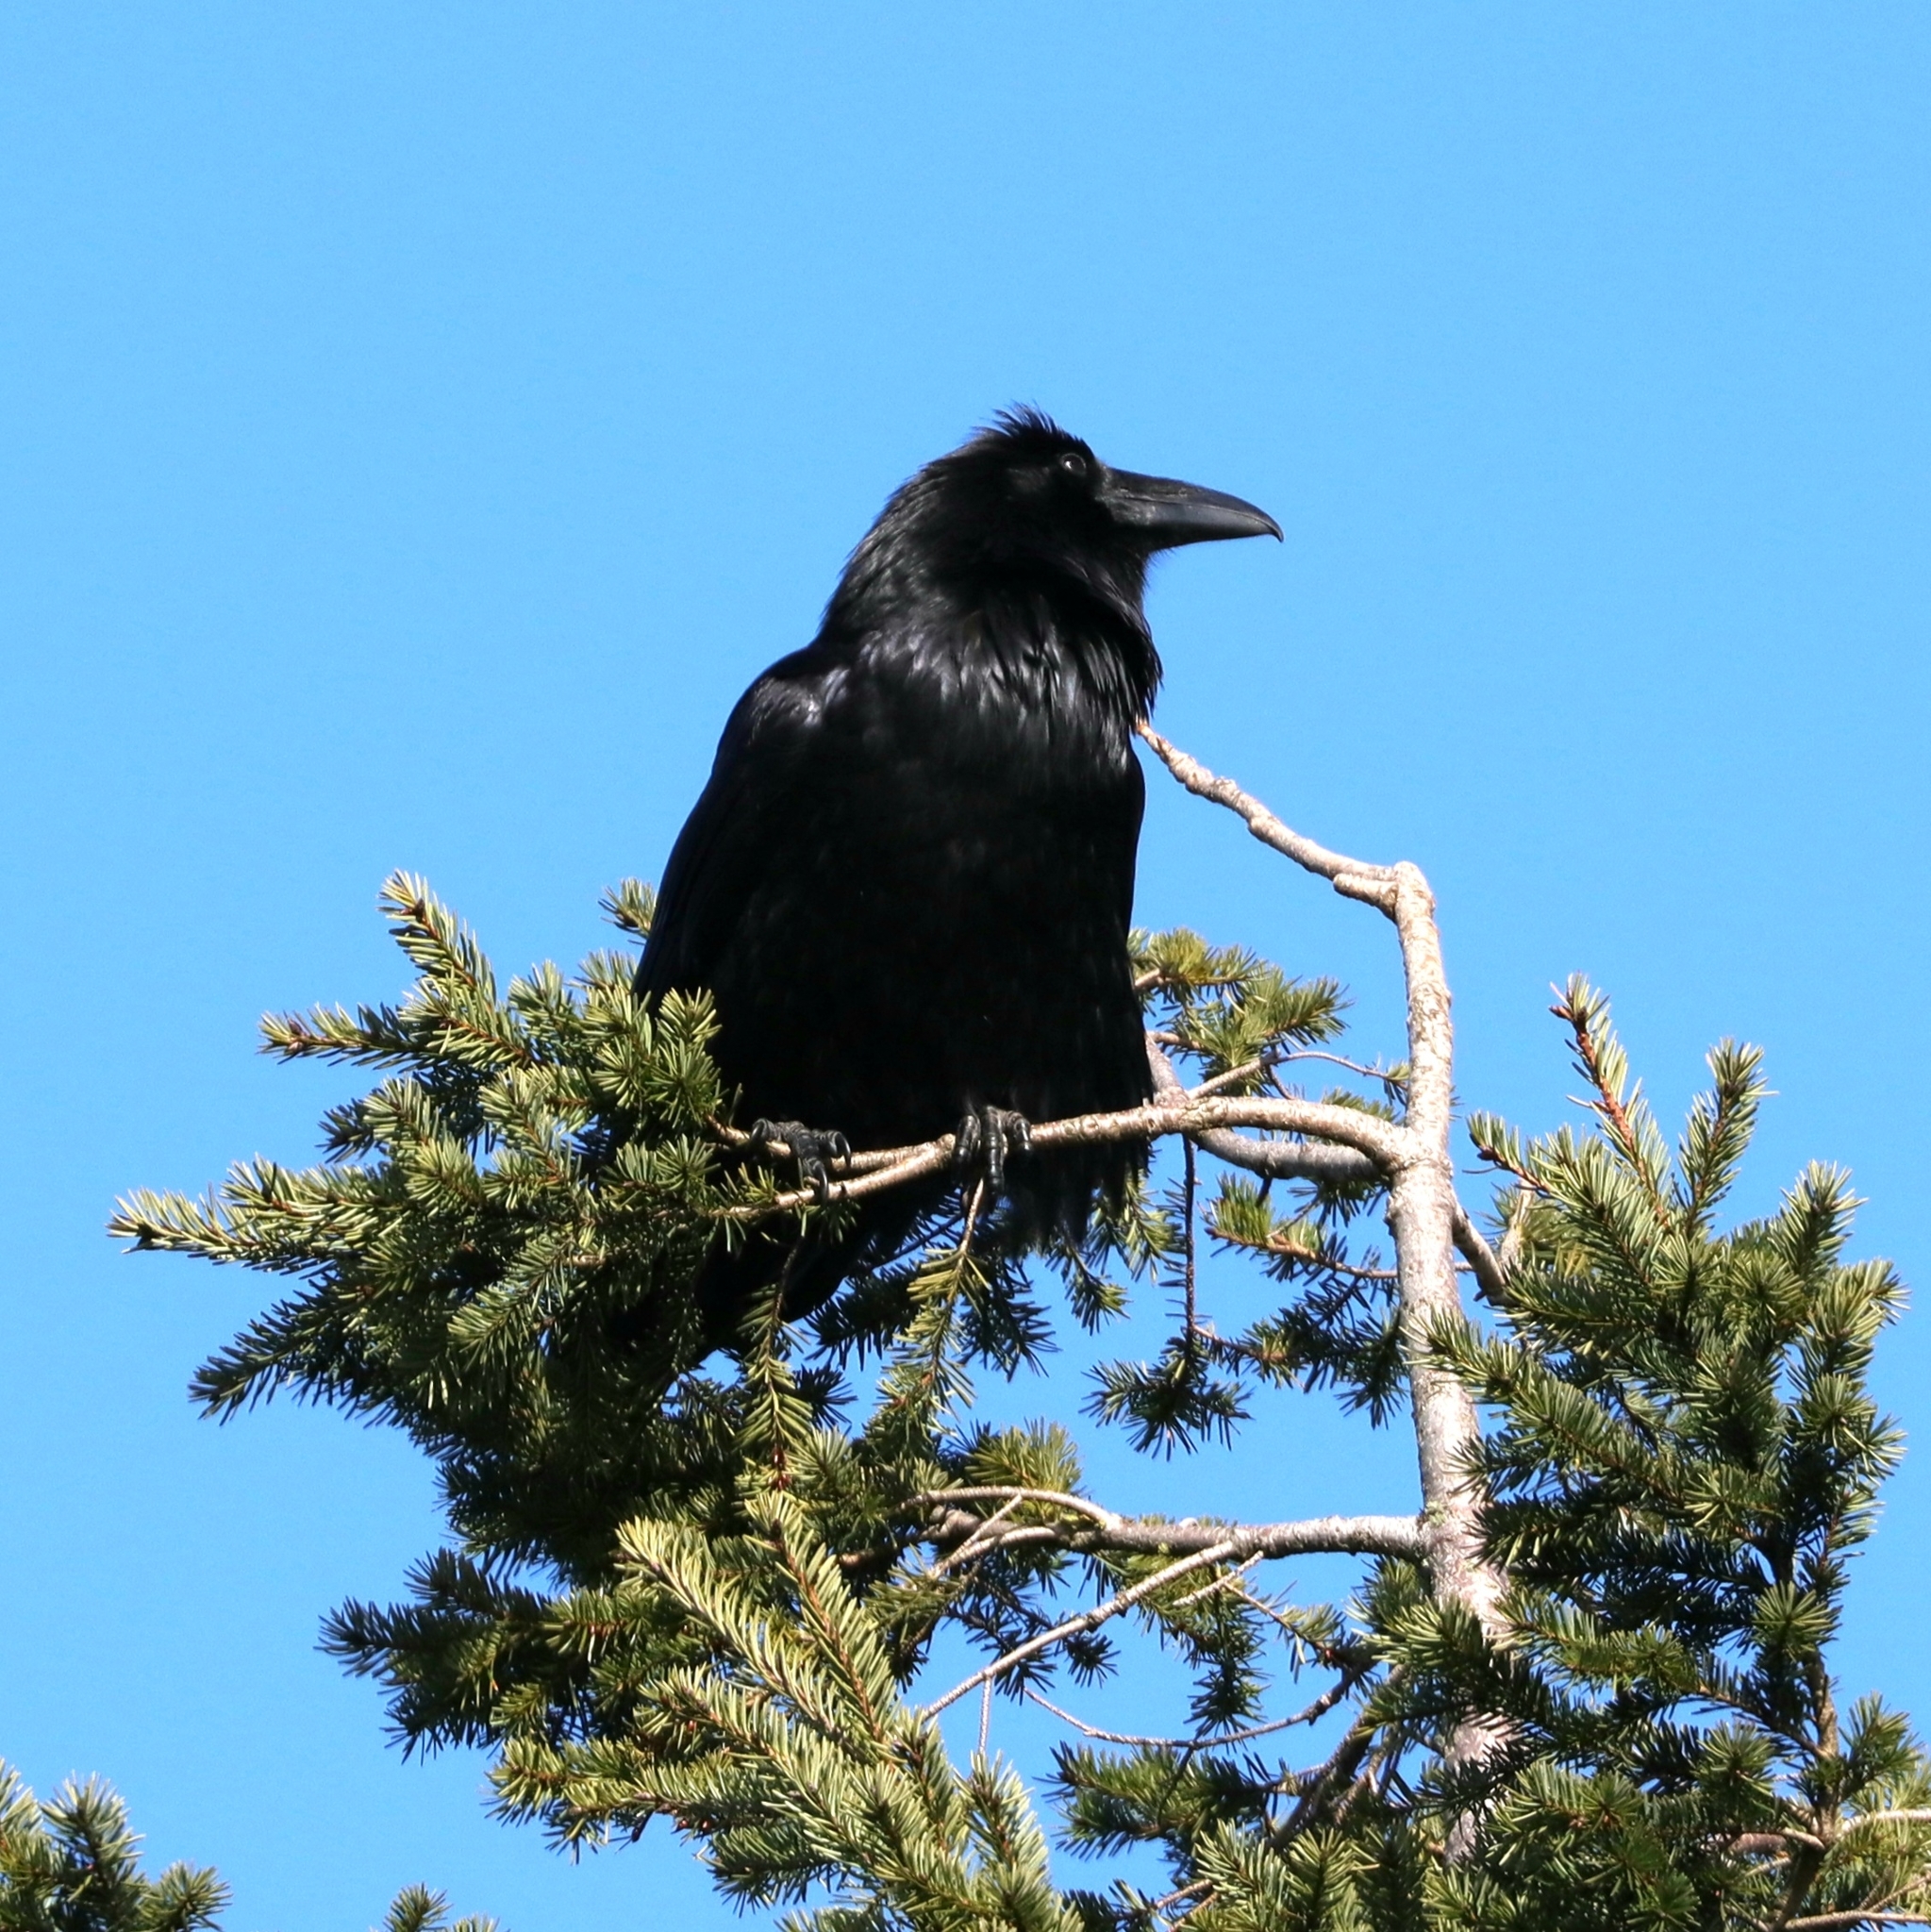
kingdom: Animalia
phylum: Chordata
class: Aves
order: Passeriformes
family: Corvidae
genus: Corvus
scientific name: Corvus corax
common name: Common raven
